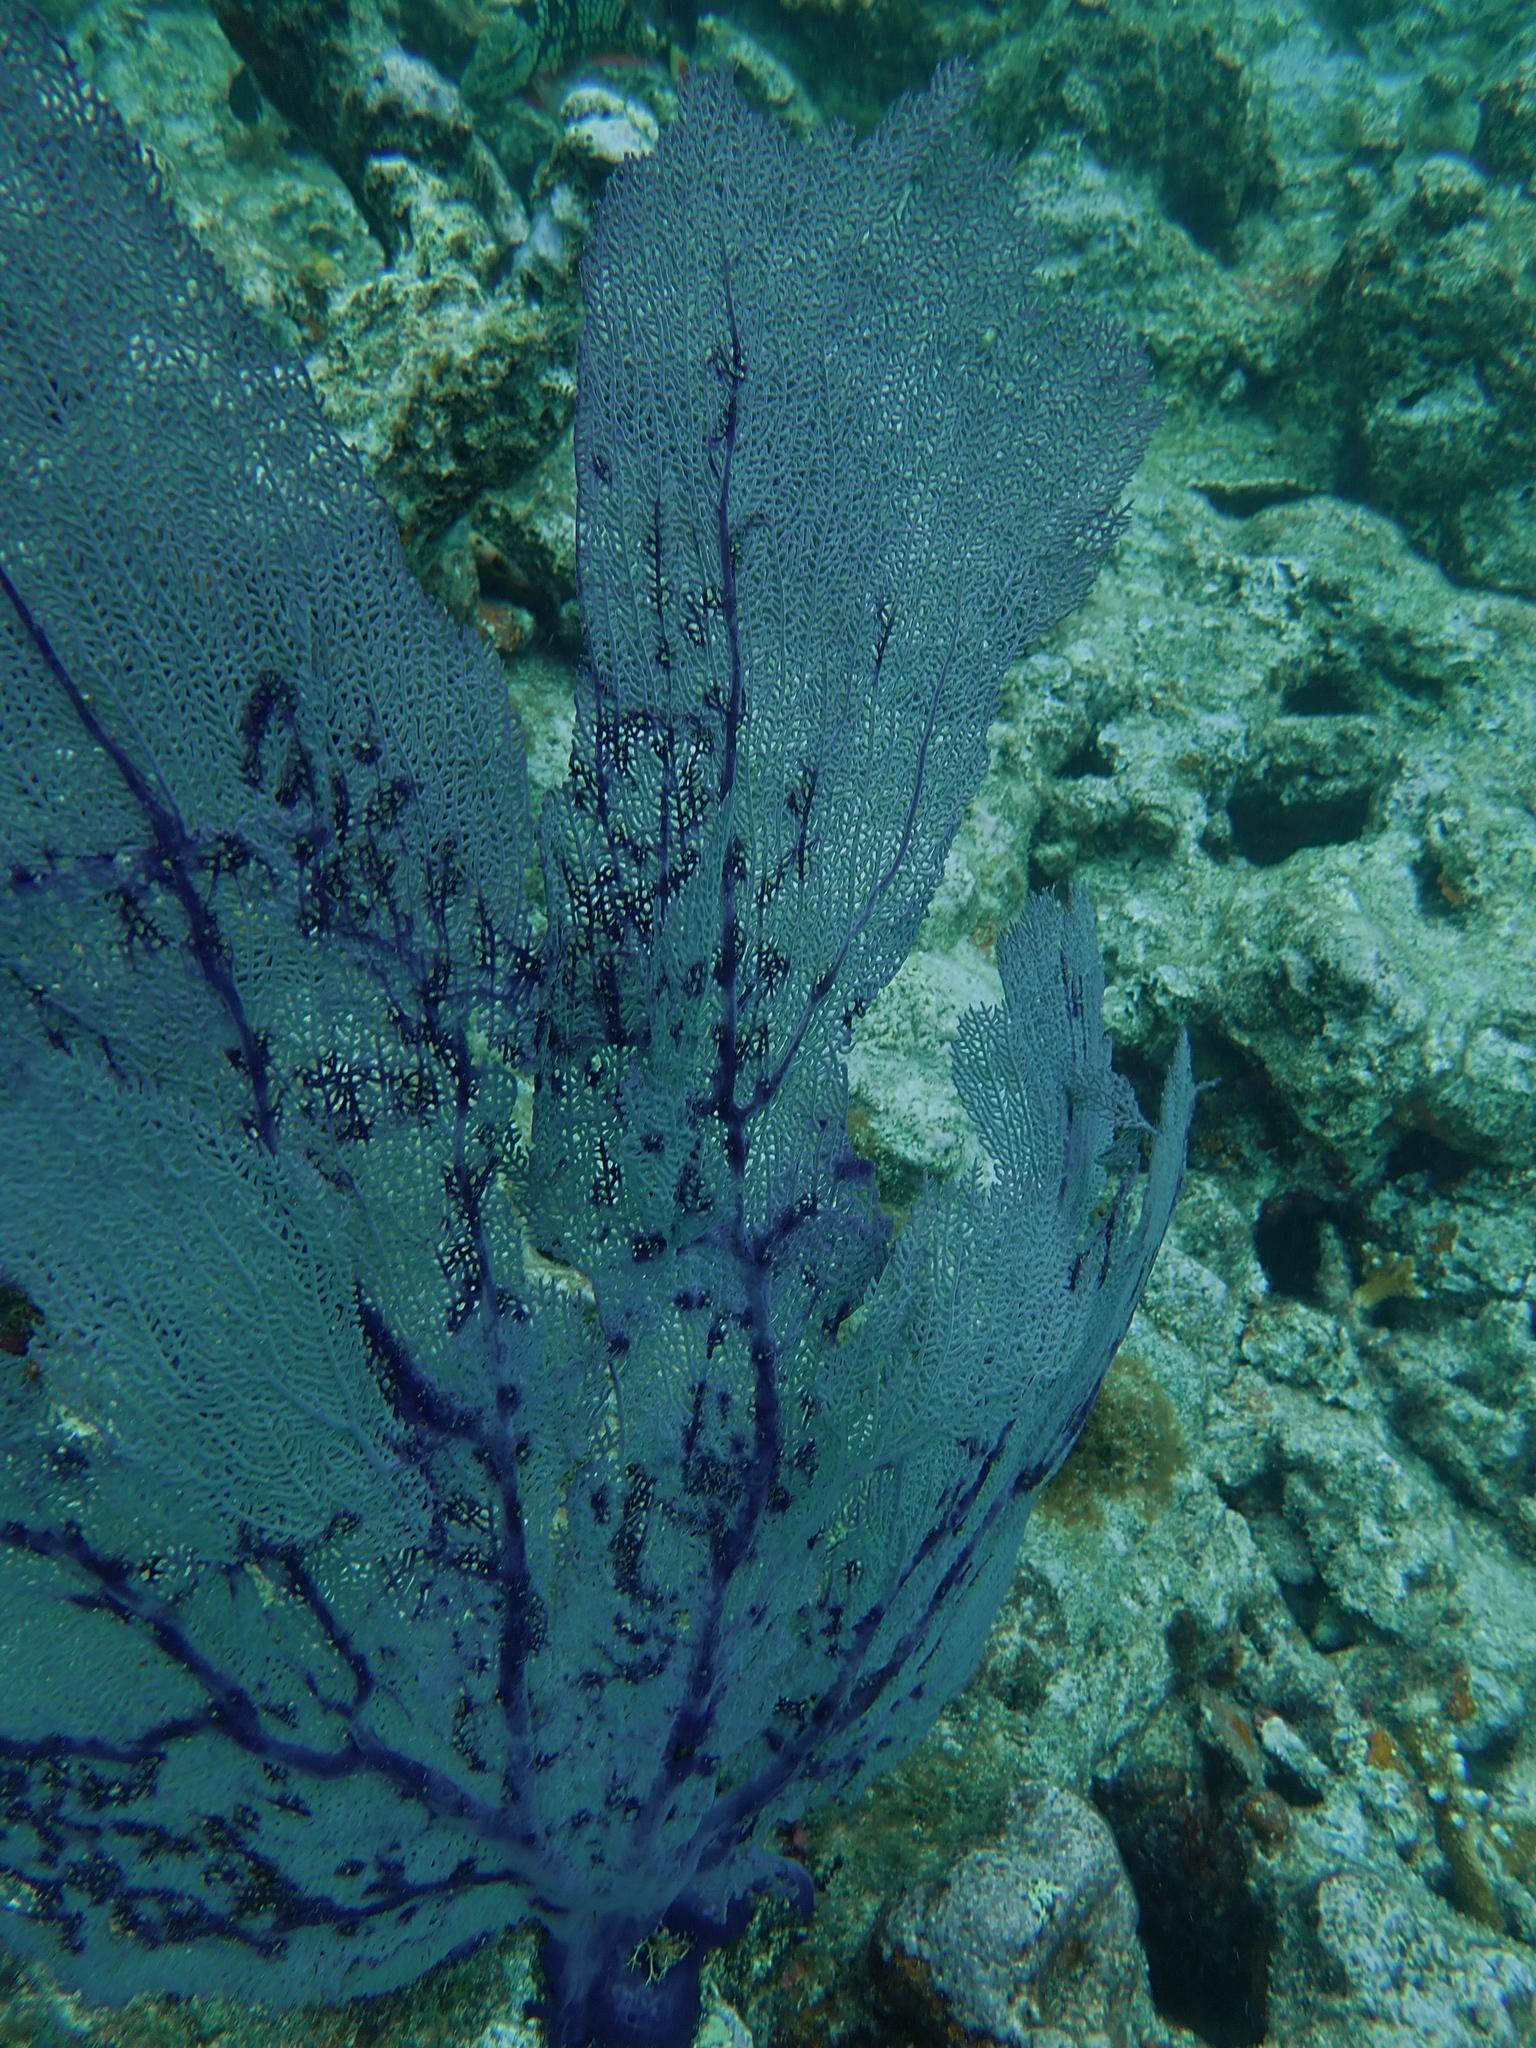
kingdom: Animalia
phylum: Cnidaria
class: Anthozoa
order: Malacalcyonacea
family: Gorgoniidae
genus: Gorgonia
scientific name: Gorgonia ventalina
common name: Common sea fan
